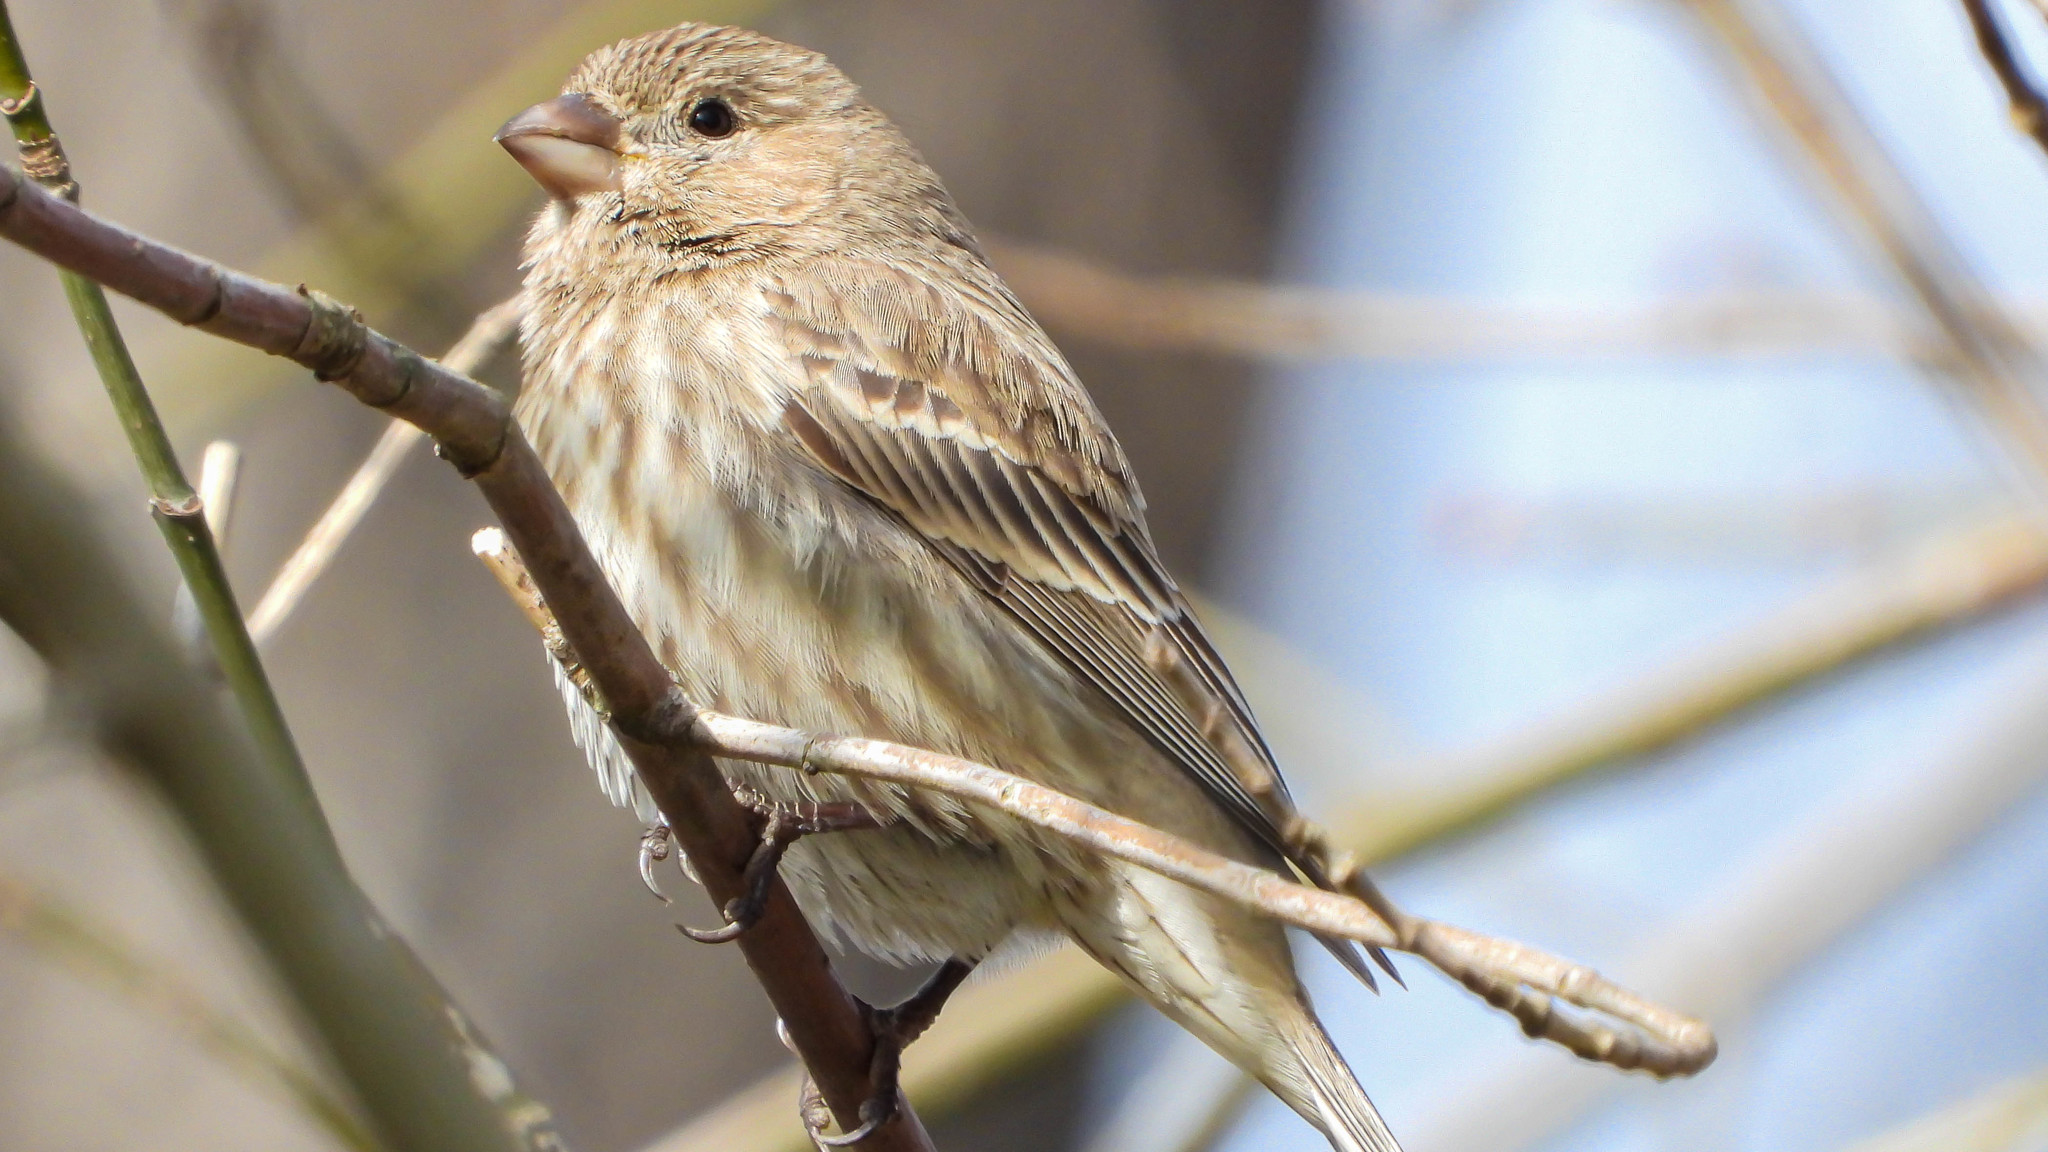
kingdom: Animalia
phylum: Chordata
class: Aves
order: Passeriformes
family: Fringillidae
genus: Haemorhous
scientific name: Haemorhous mexicanus
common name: House finch
